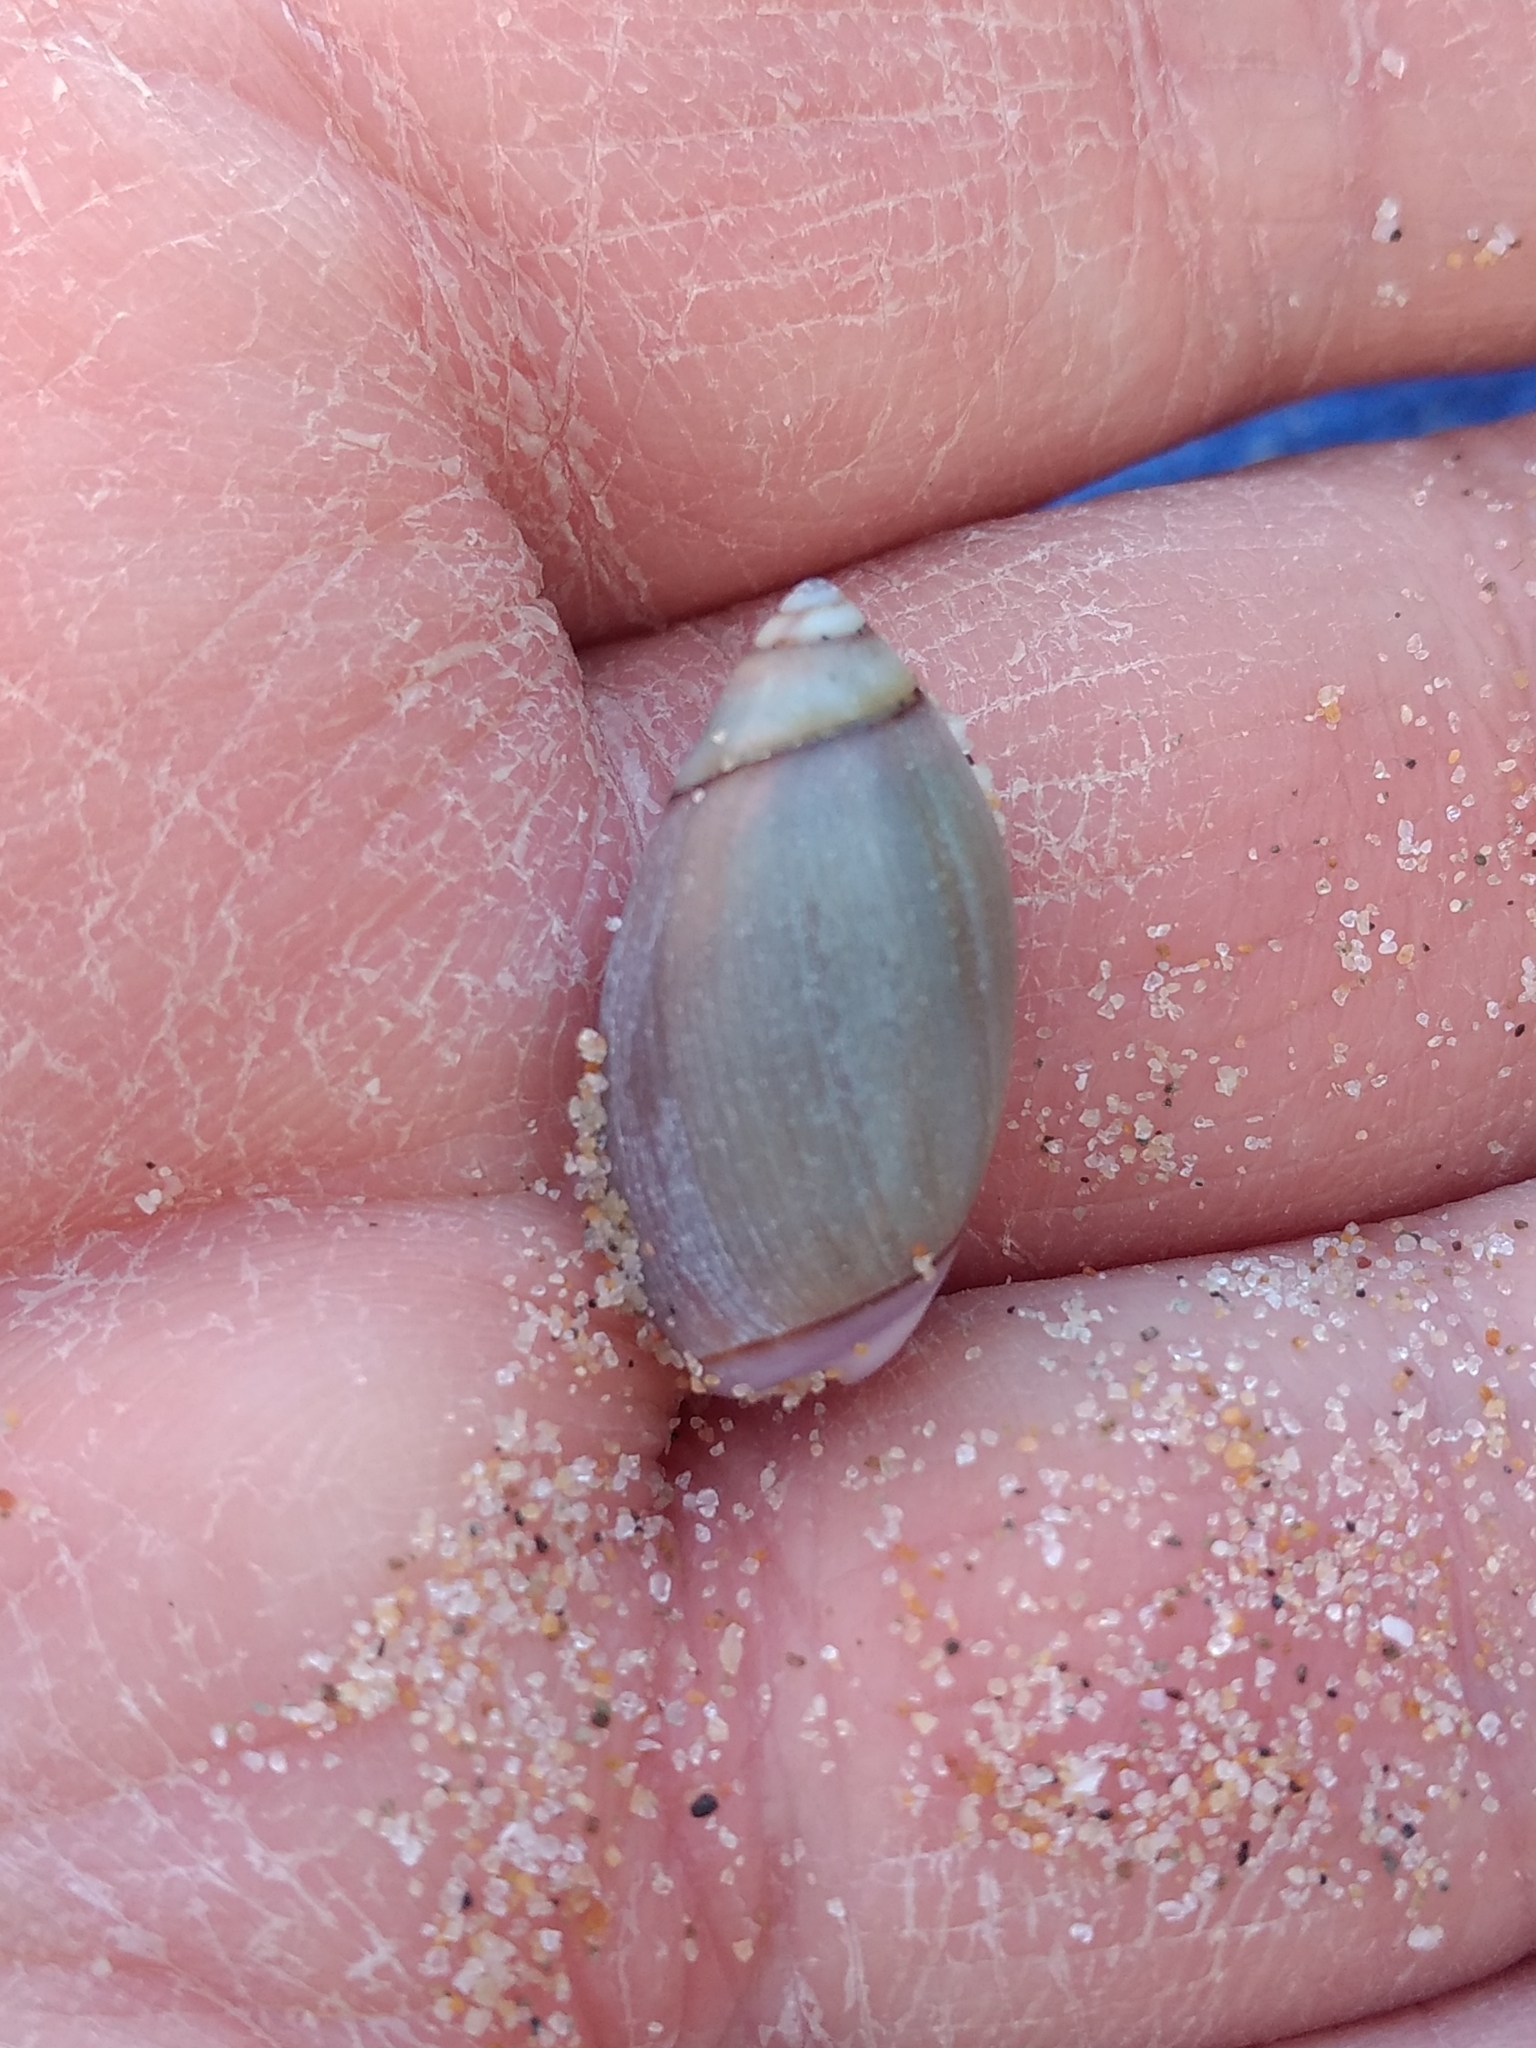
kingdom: Animalia
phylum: Mollusca
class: Gastropoda
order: Neogastropoda
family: Olividae
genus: Callianax
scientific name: Callianax biplicata
